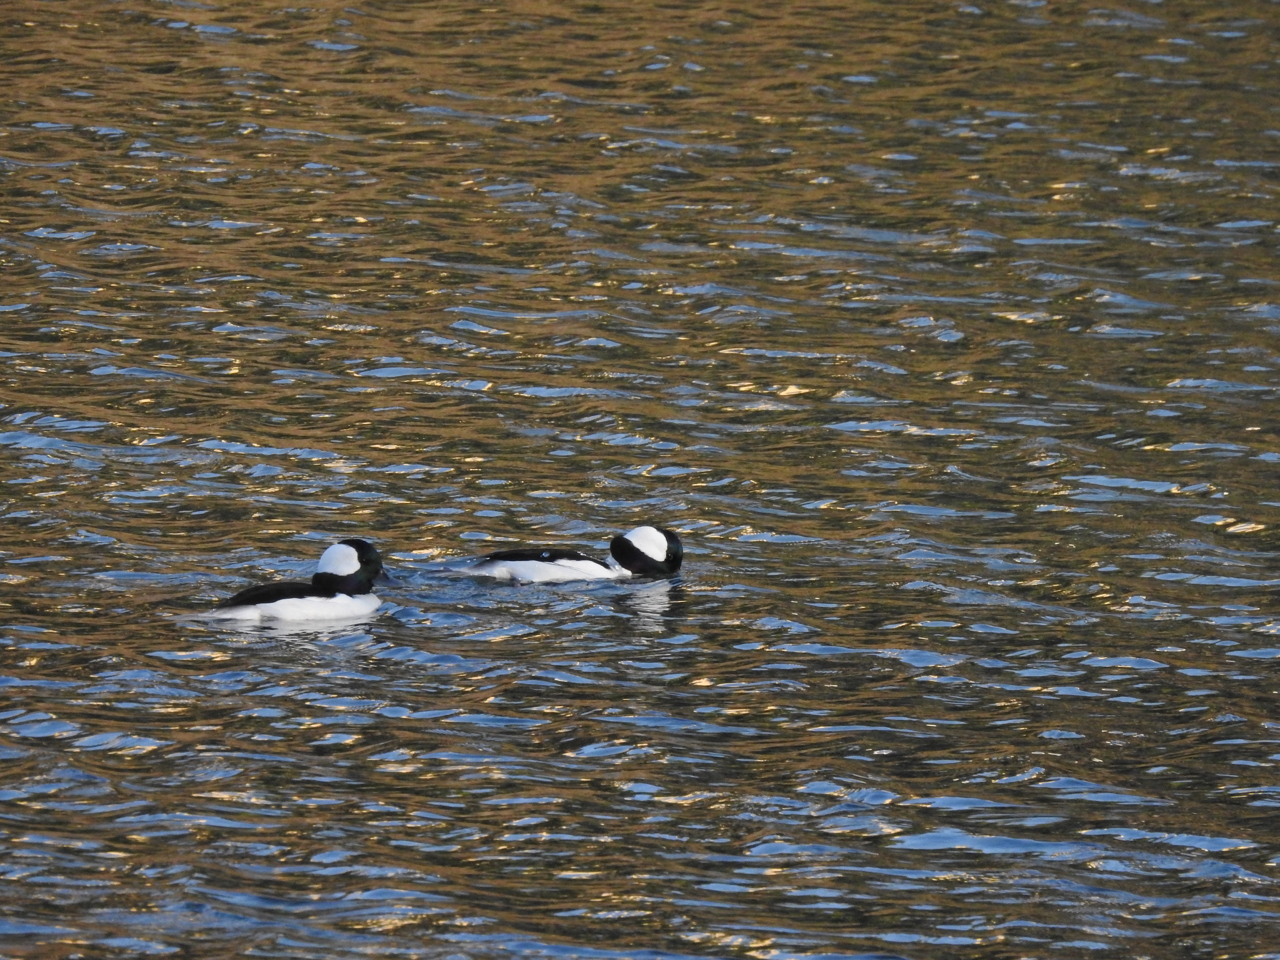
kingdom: Animalia
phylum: Chordata
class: Aves
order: Anseriformes
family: Anatidae
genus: Bucephala
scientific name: Bucephala albeola
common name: Bufflehead
